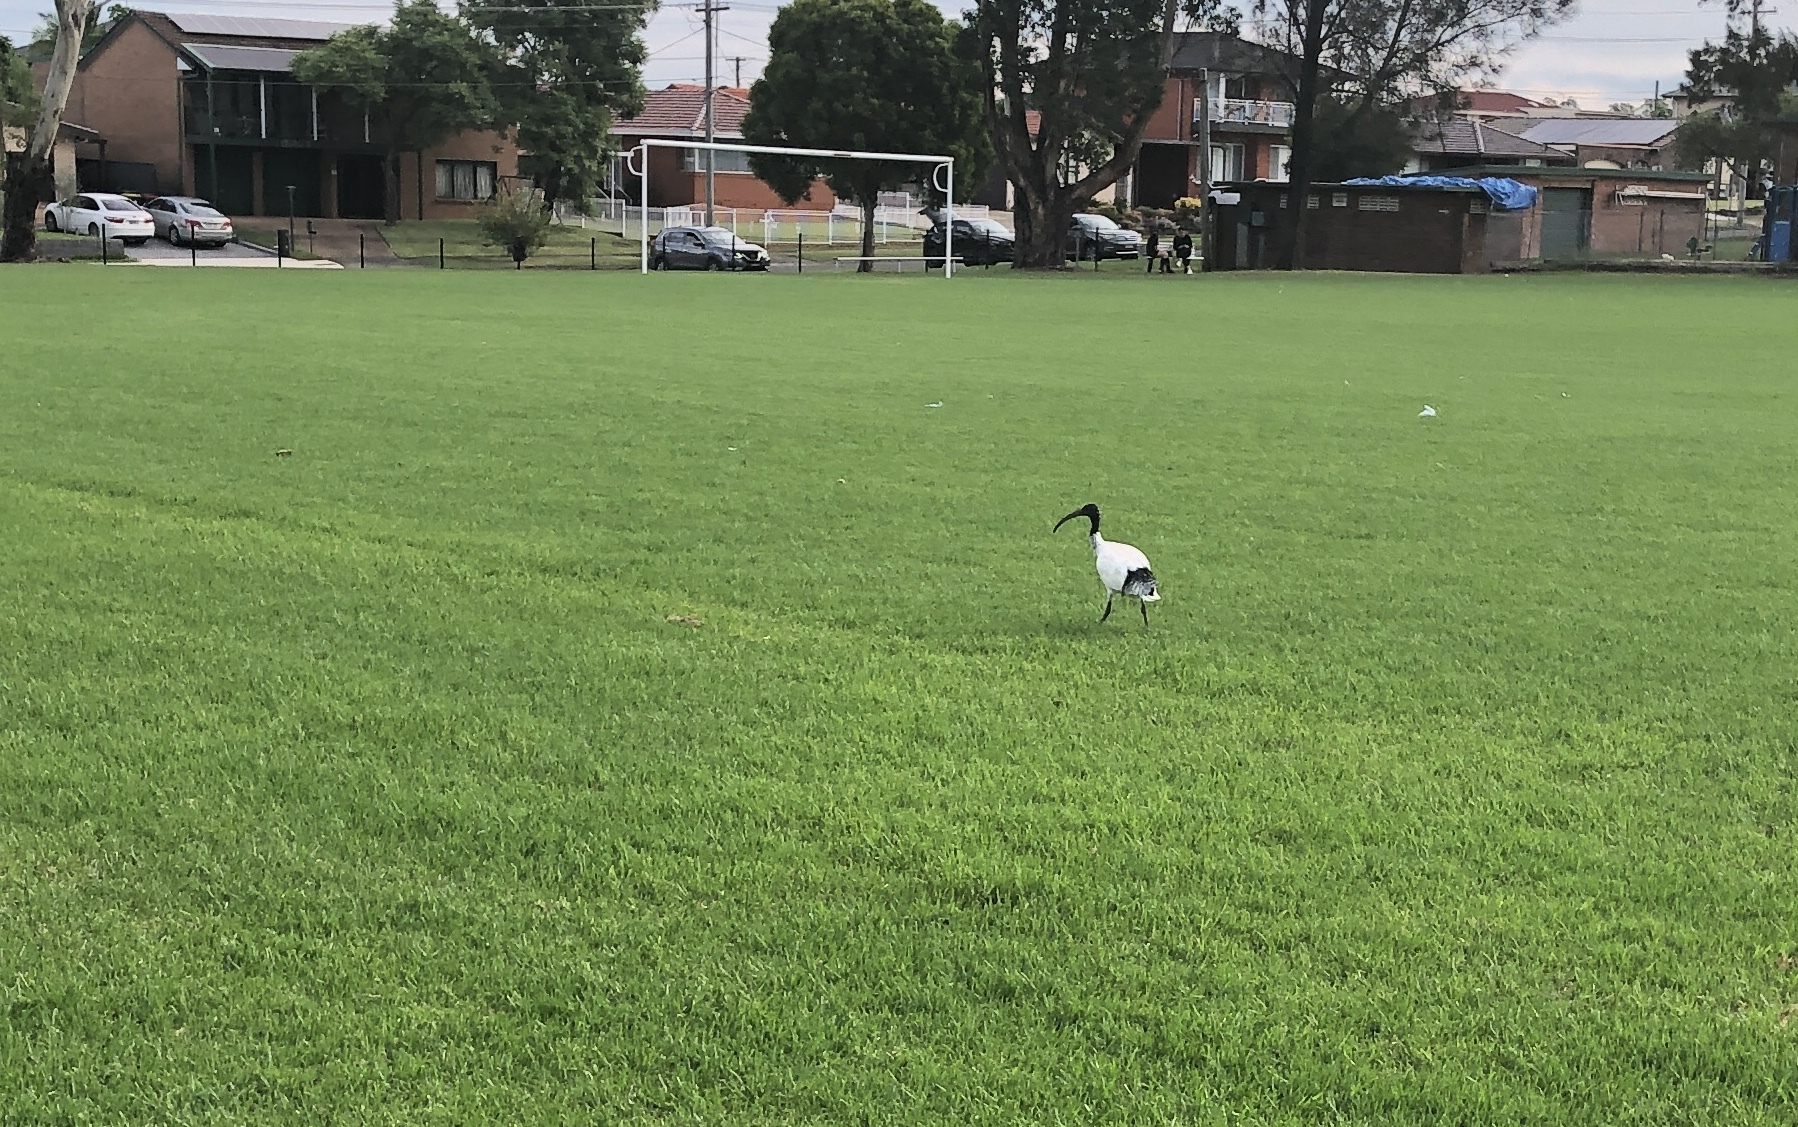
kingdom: Animalia
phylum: Chordata
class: Aves
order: Pelecaniformes
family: Threskiornithidae
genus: Threskiornis
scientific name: Threskiornis molucca
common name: Australian white ibis
